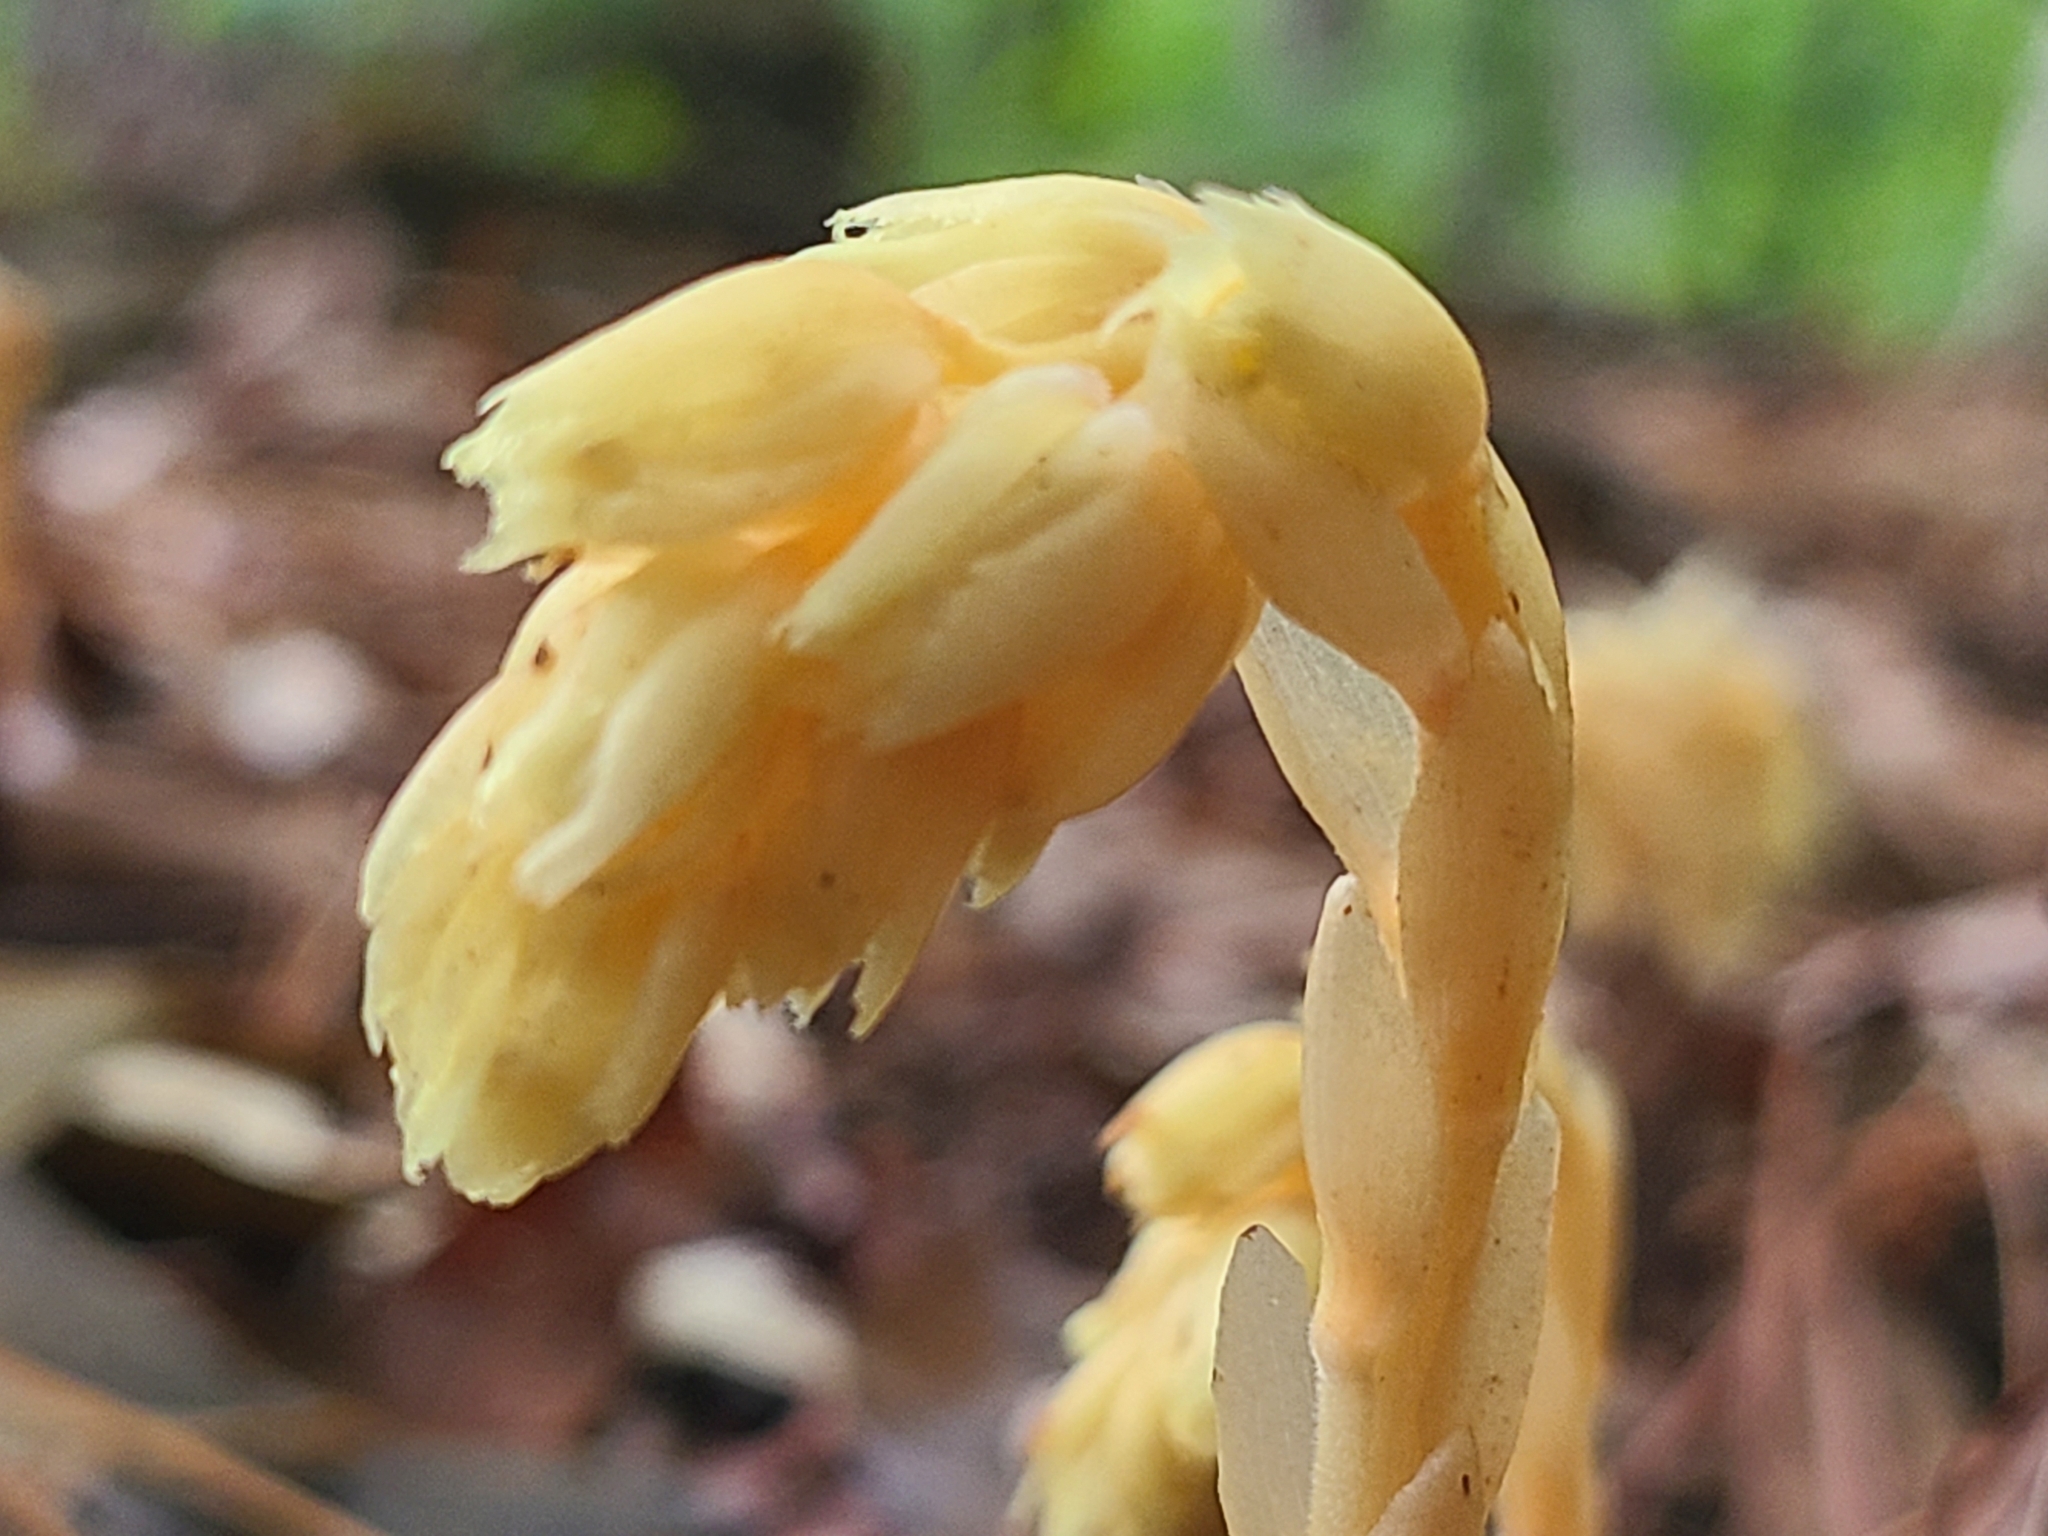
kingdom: Plantae
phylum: Tracheophyta
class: Magnoliopsida
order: Ericales
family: Ericaceae
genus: Hypopitys
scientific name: Hypopitys monotropa
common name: Yellow bird's-nest
